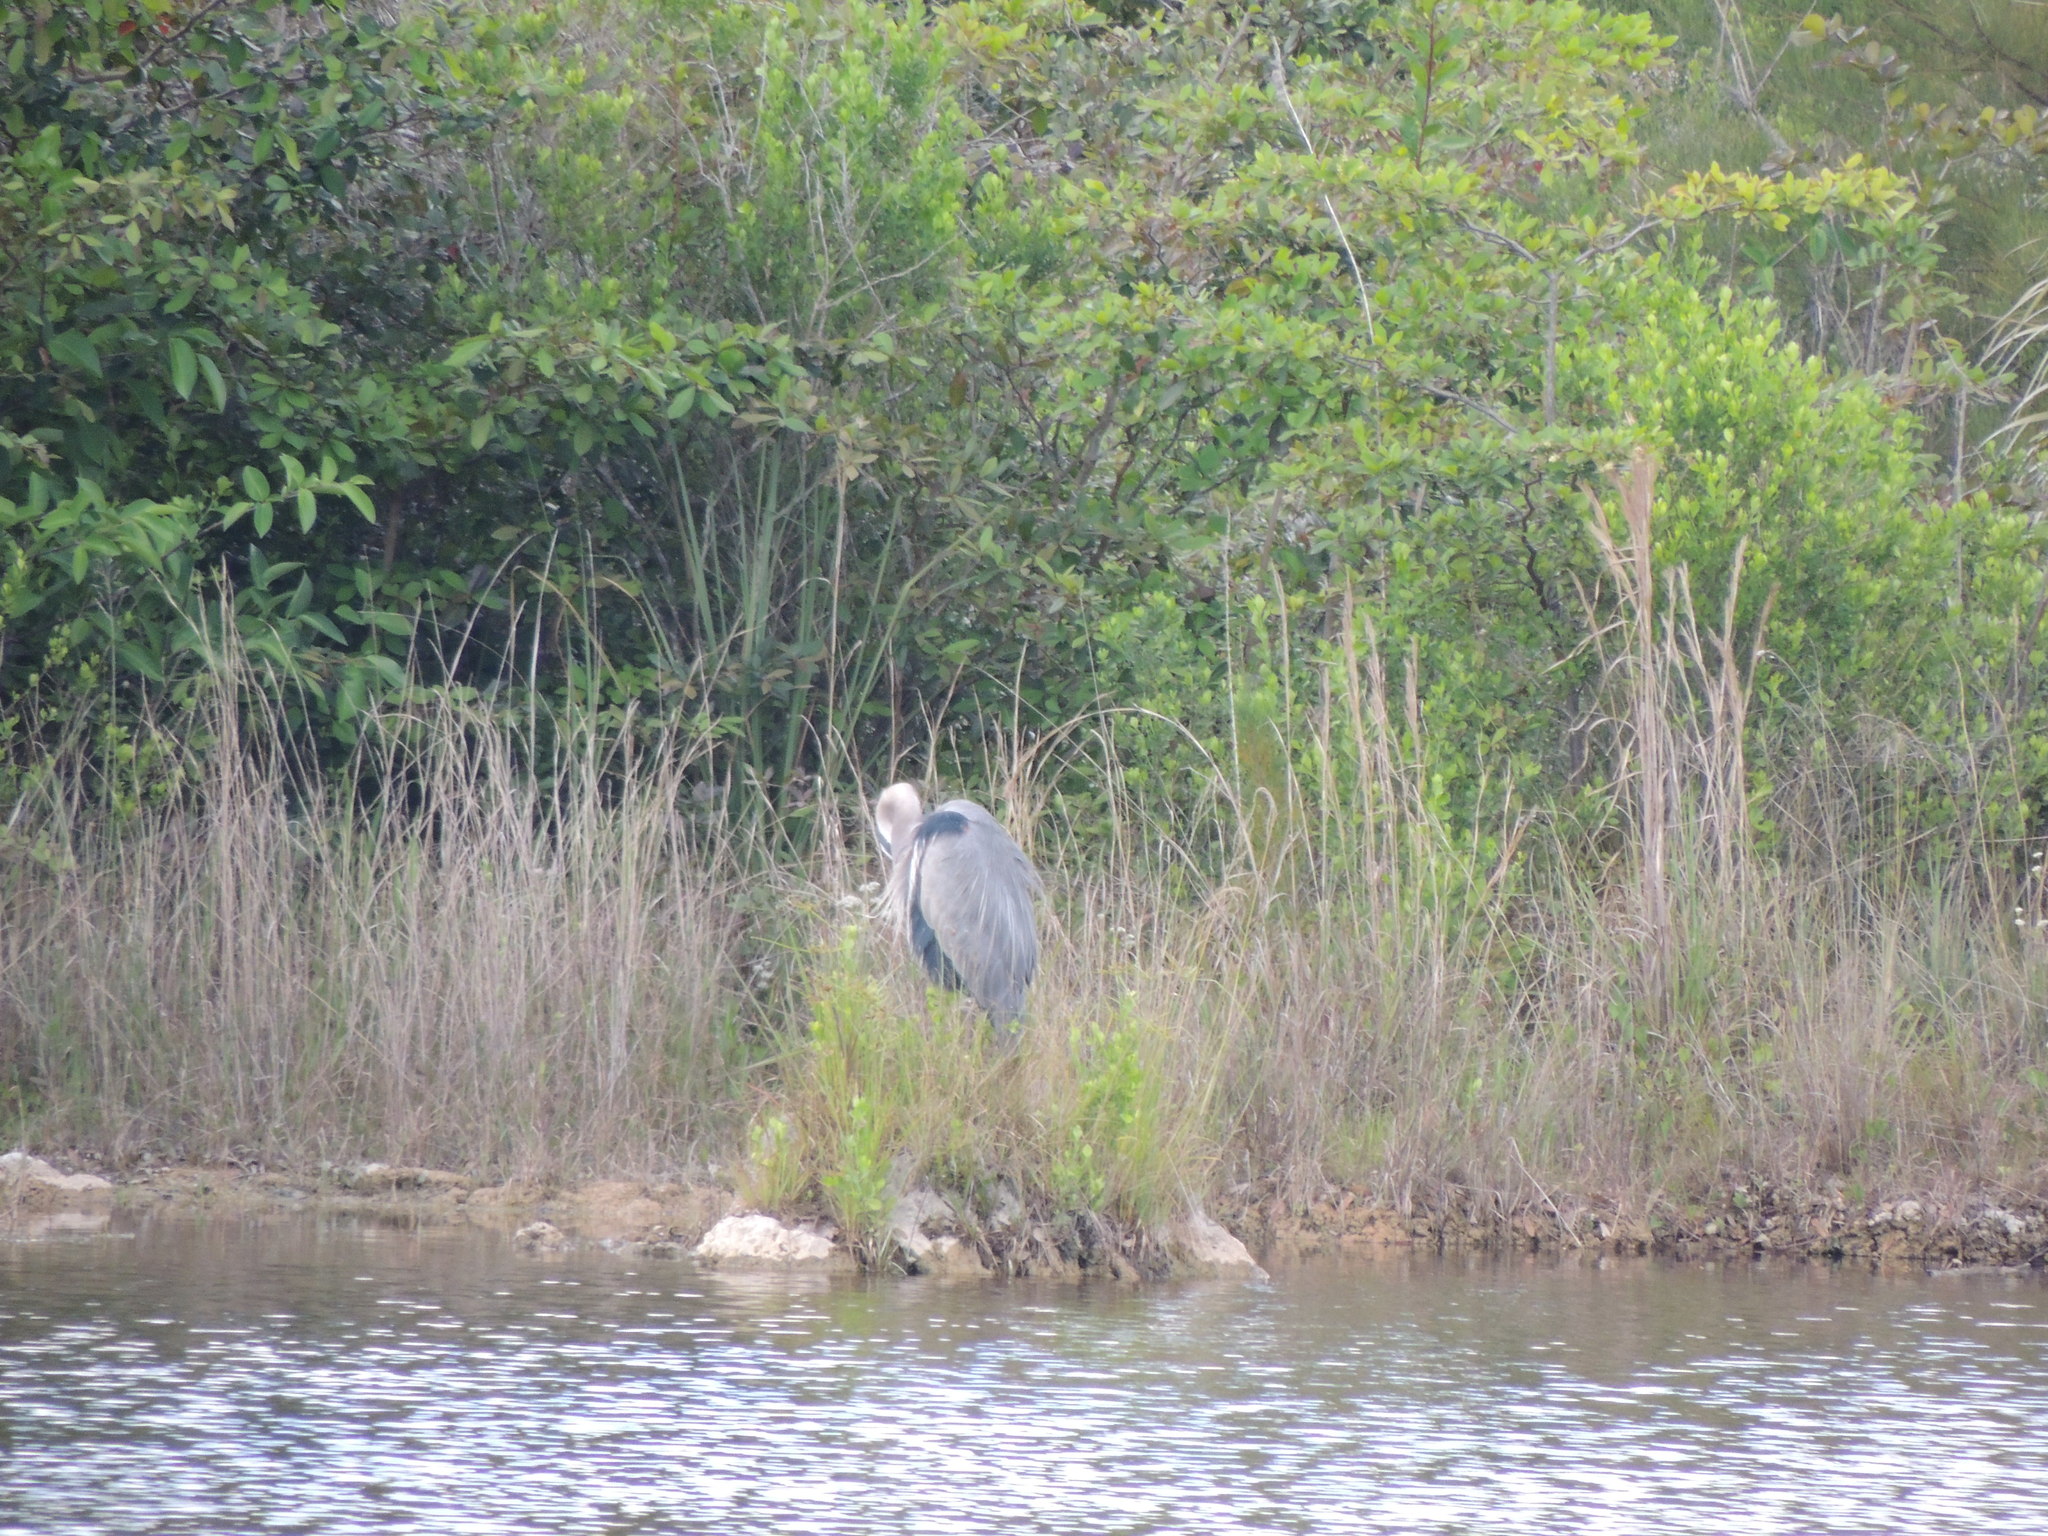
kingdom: Animalia
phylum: Chordata
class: Aves
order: Pelecaniformes
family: Ardeidae
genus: Ardea
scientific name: Ardea herodias
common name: Great blue heron
